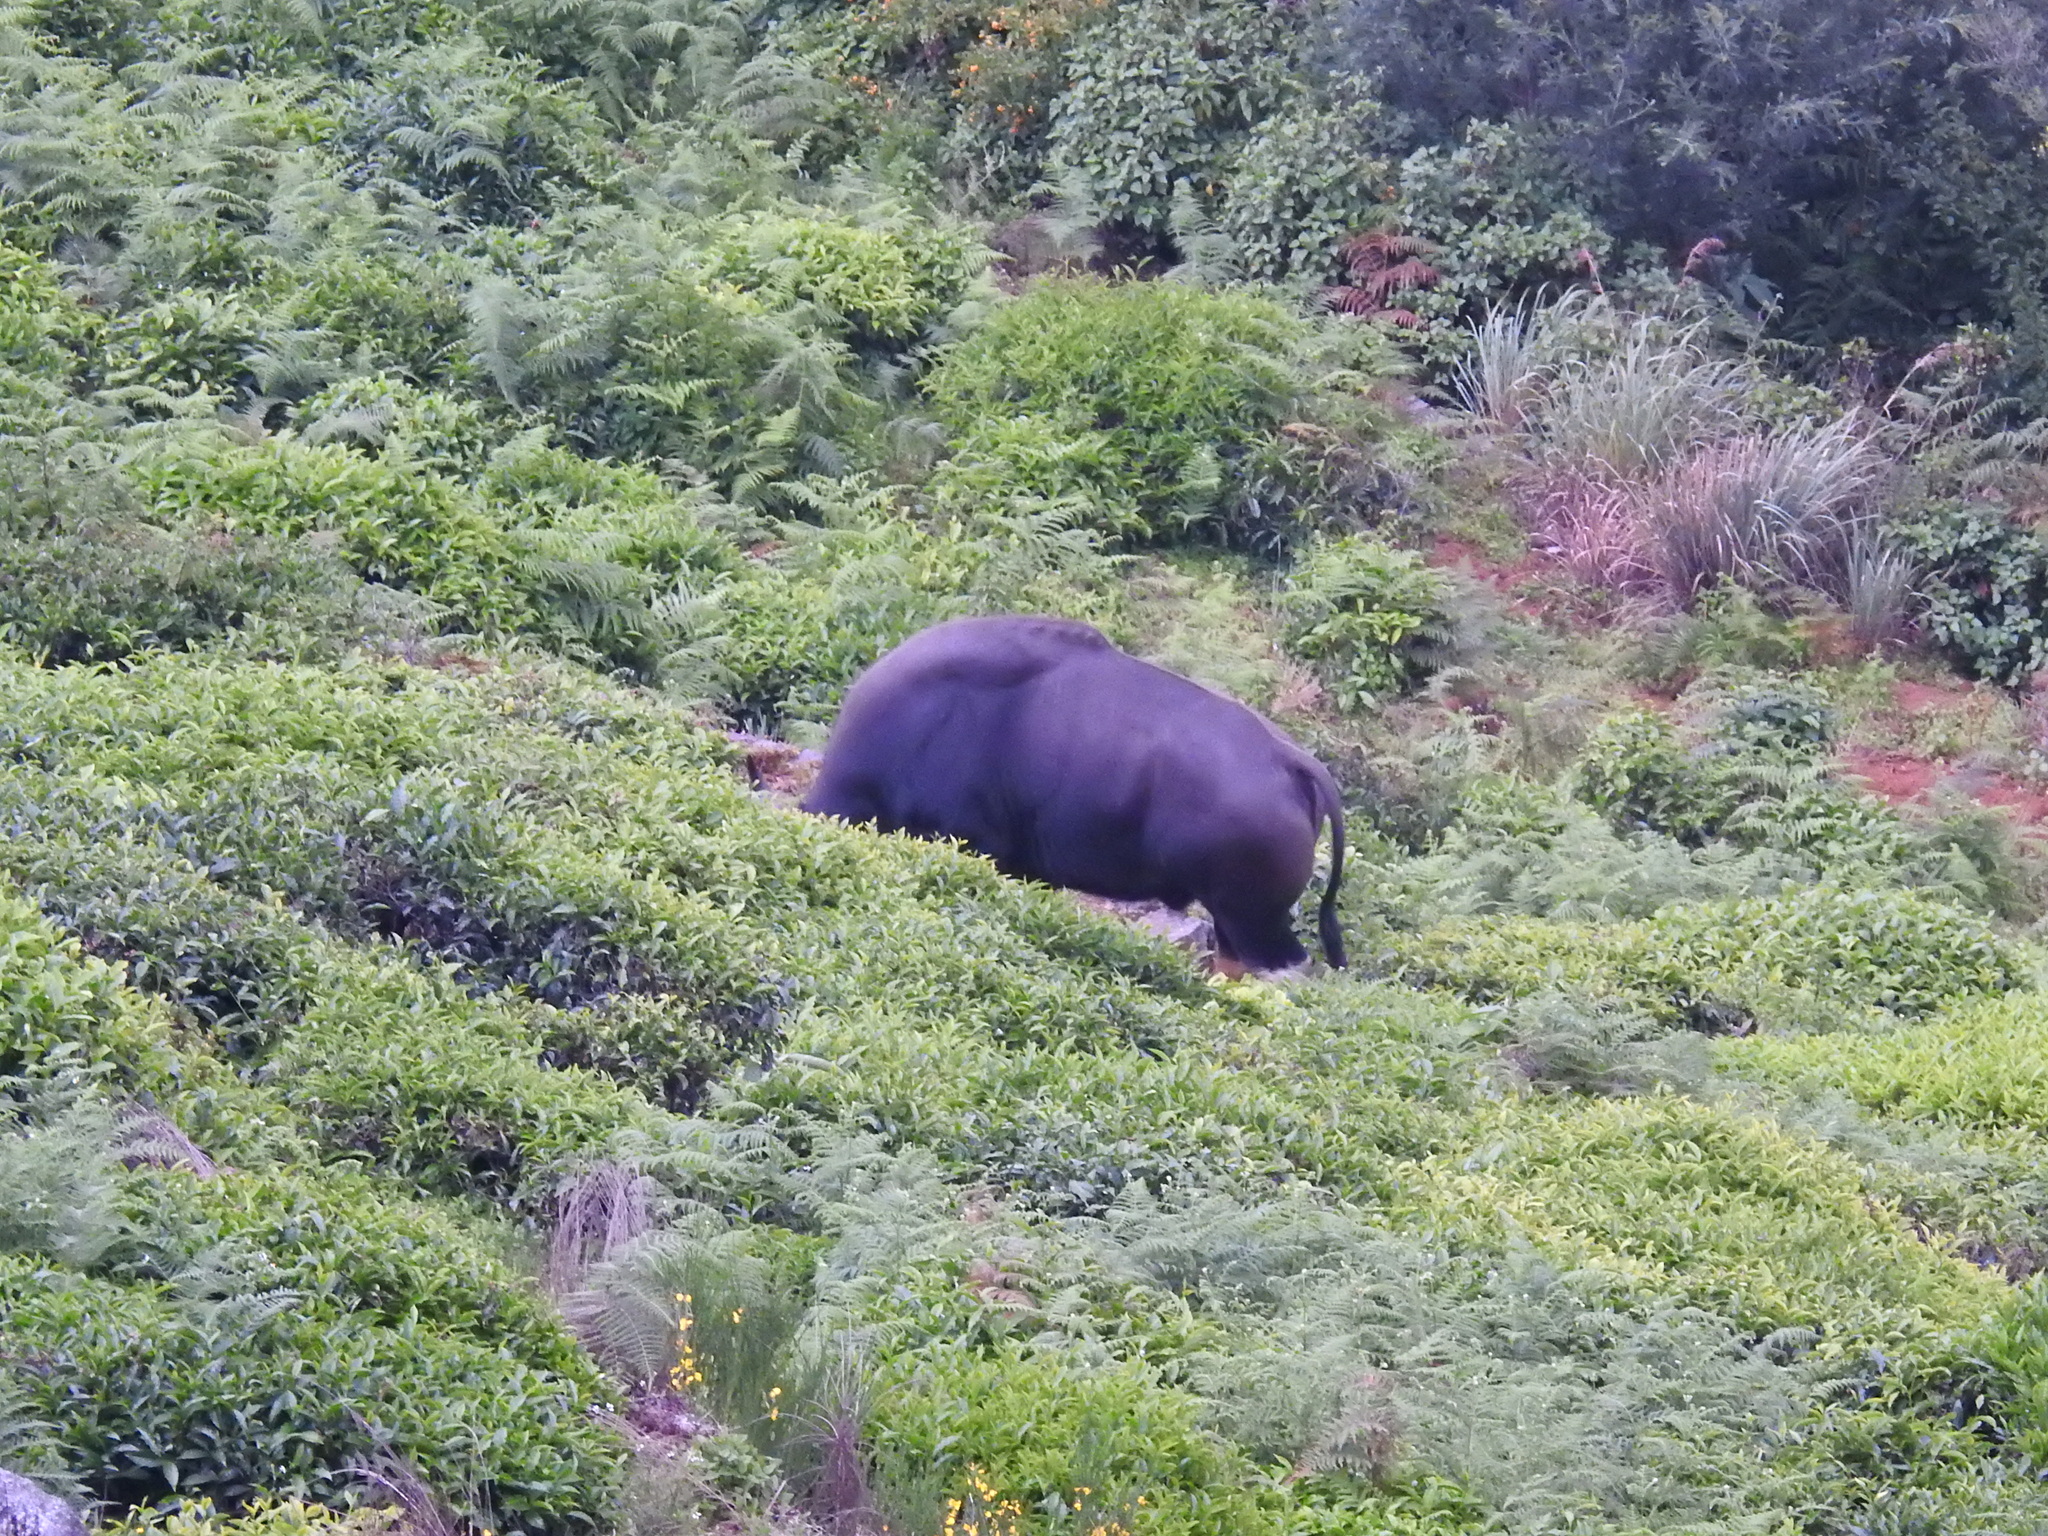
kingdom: Animalia
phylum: Chordata
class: Mammalia
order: Artiodactyla
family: Bovidae
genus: Bos
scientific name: Bos frontalis
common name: Gaur
